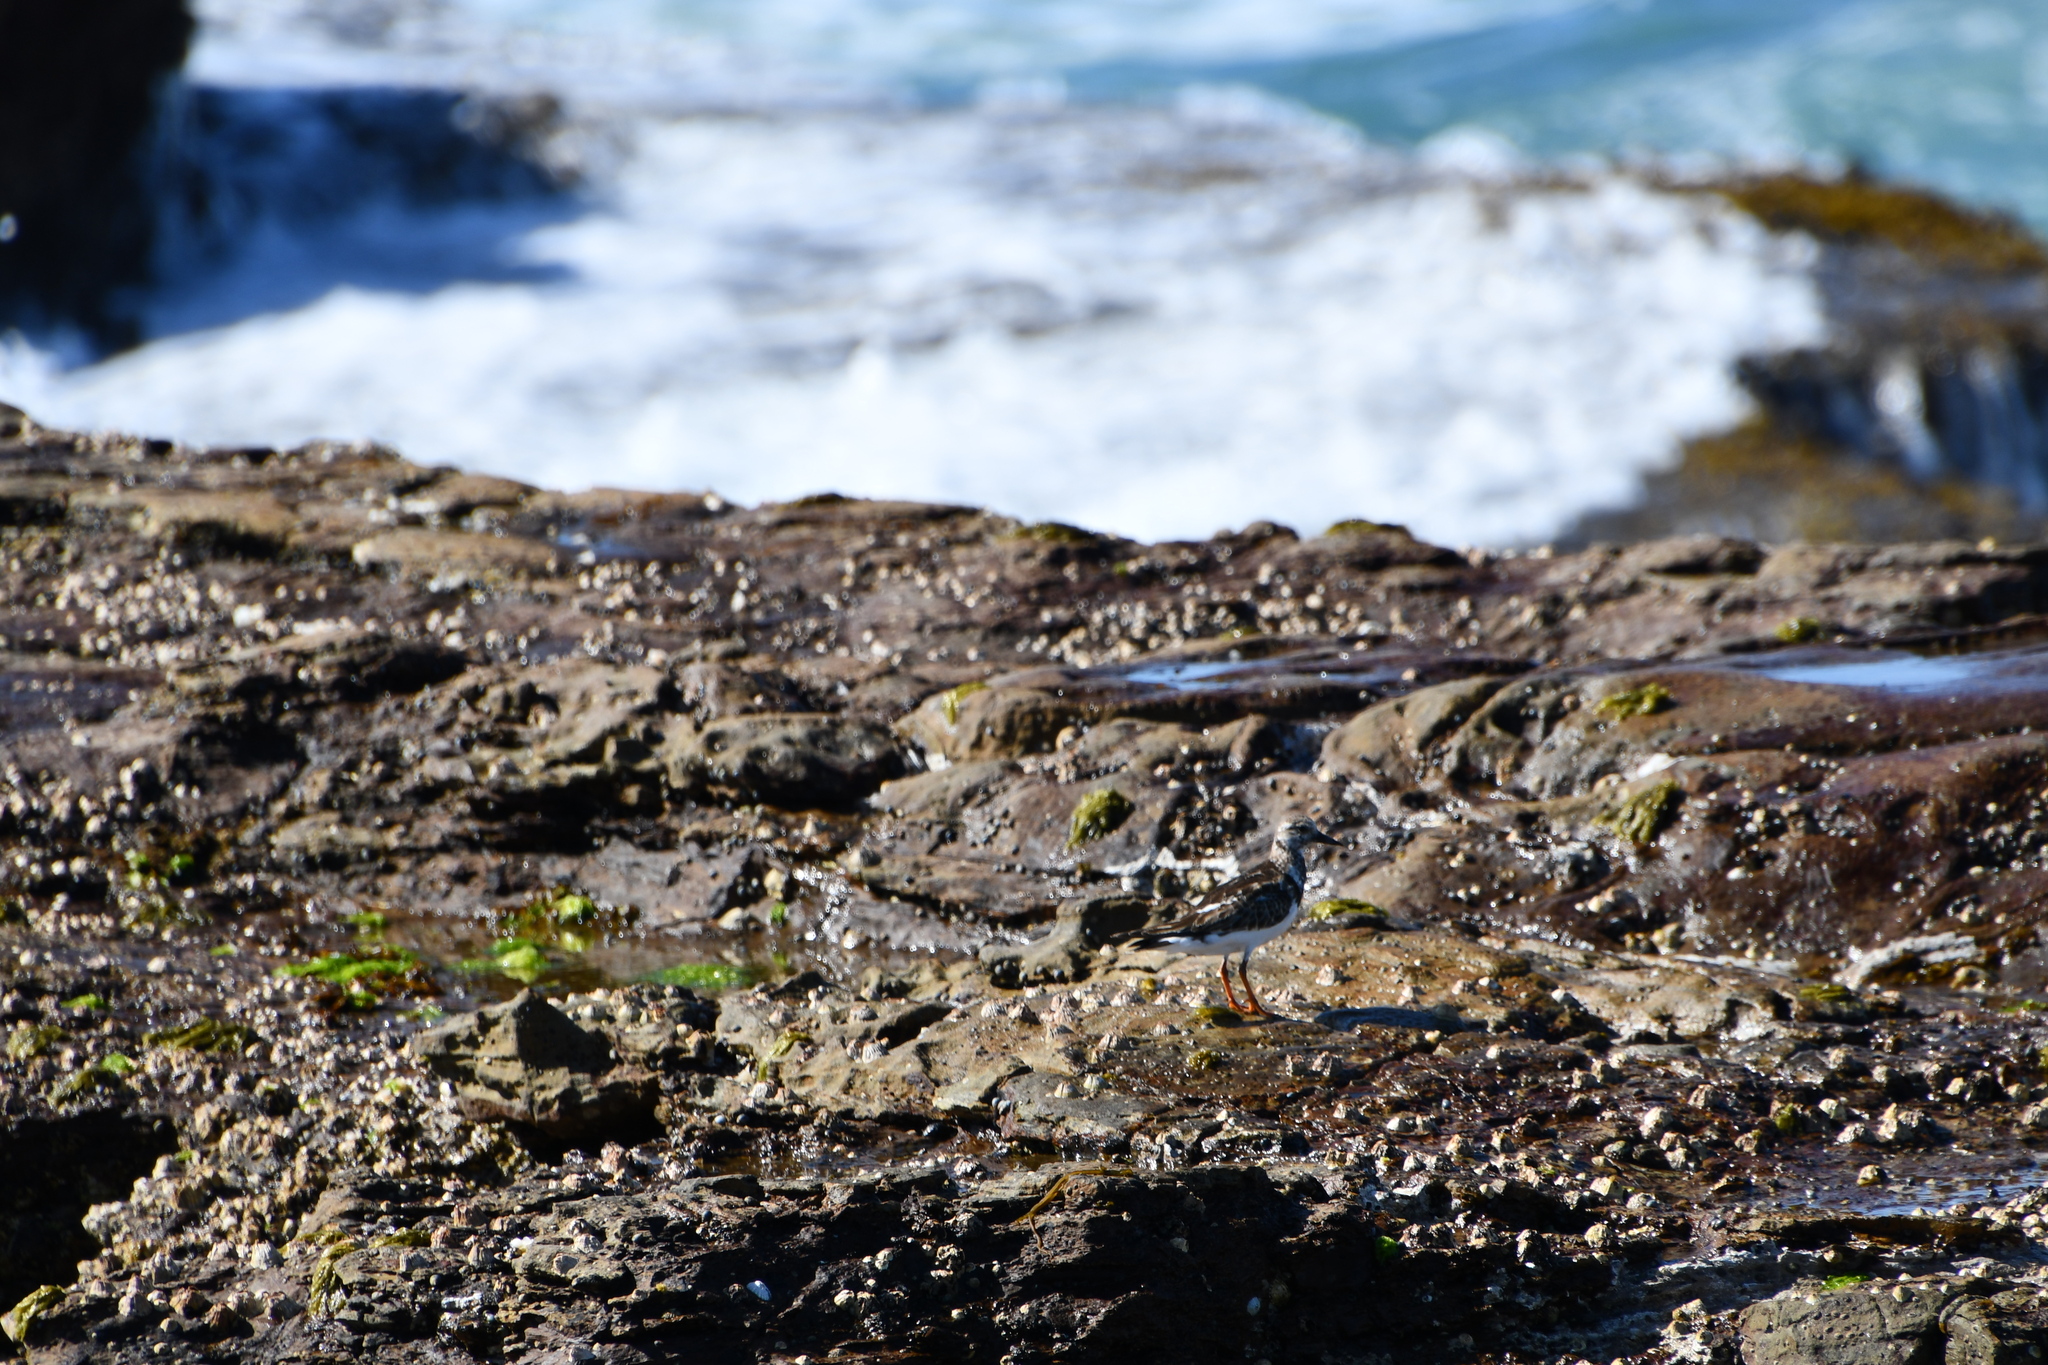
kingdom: Animalia
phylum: Chordata
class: Aves
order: Charadriiformes
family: Scolopacidae
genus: Arenaria
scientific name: Arenaria interpres
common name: Ruddy turnstone
